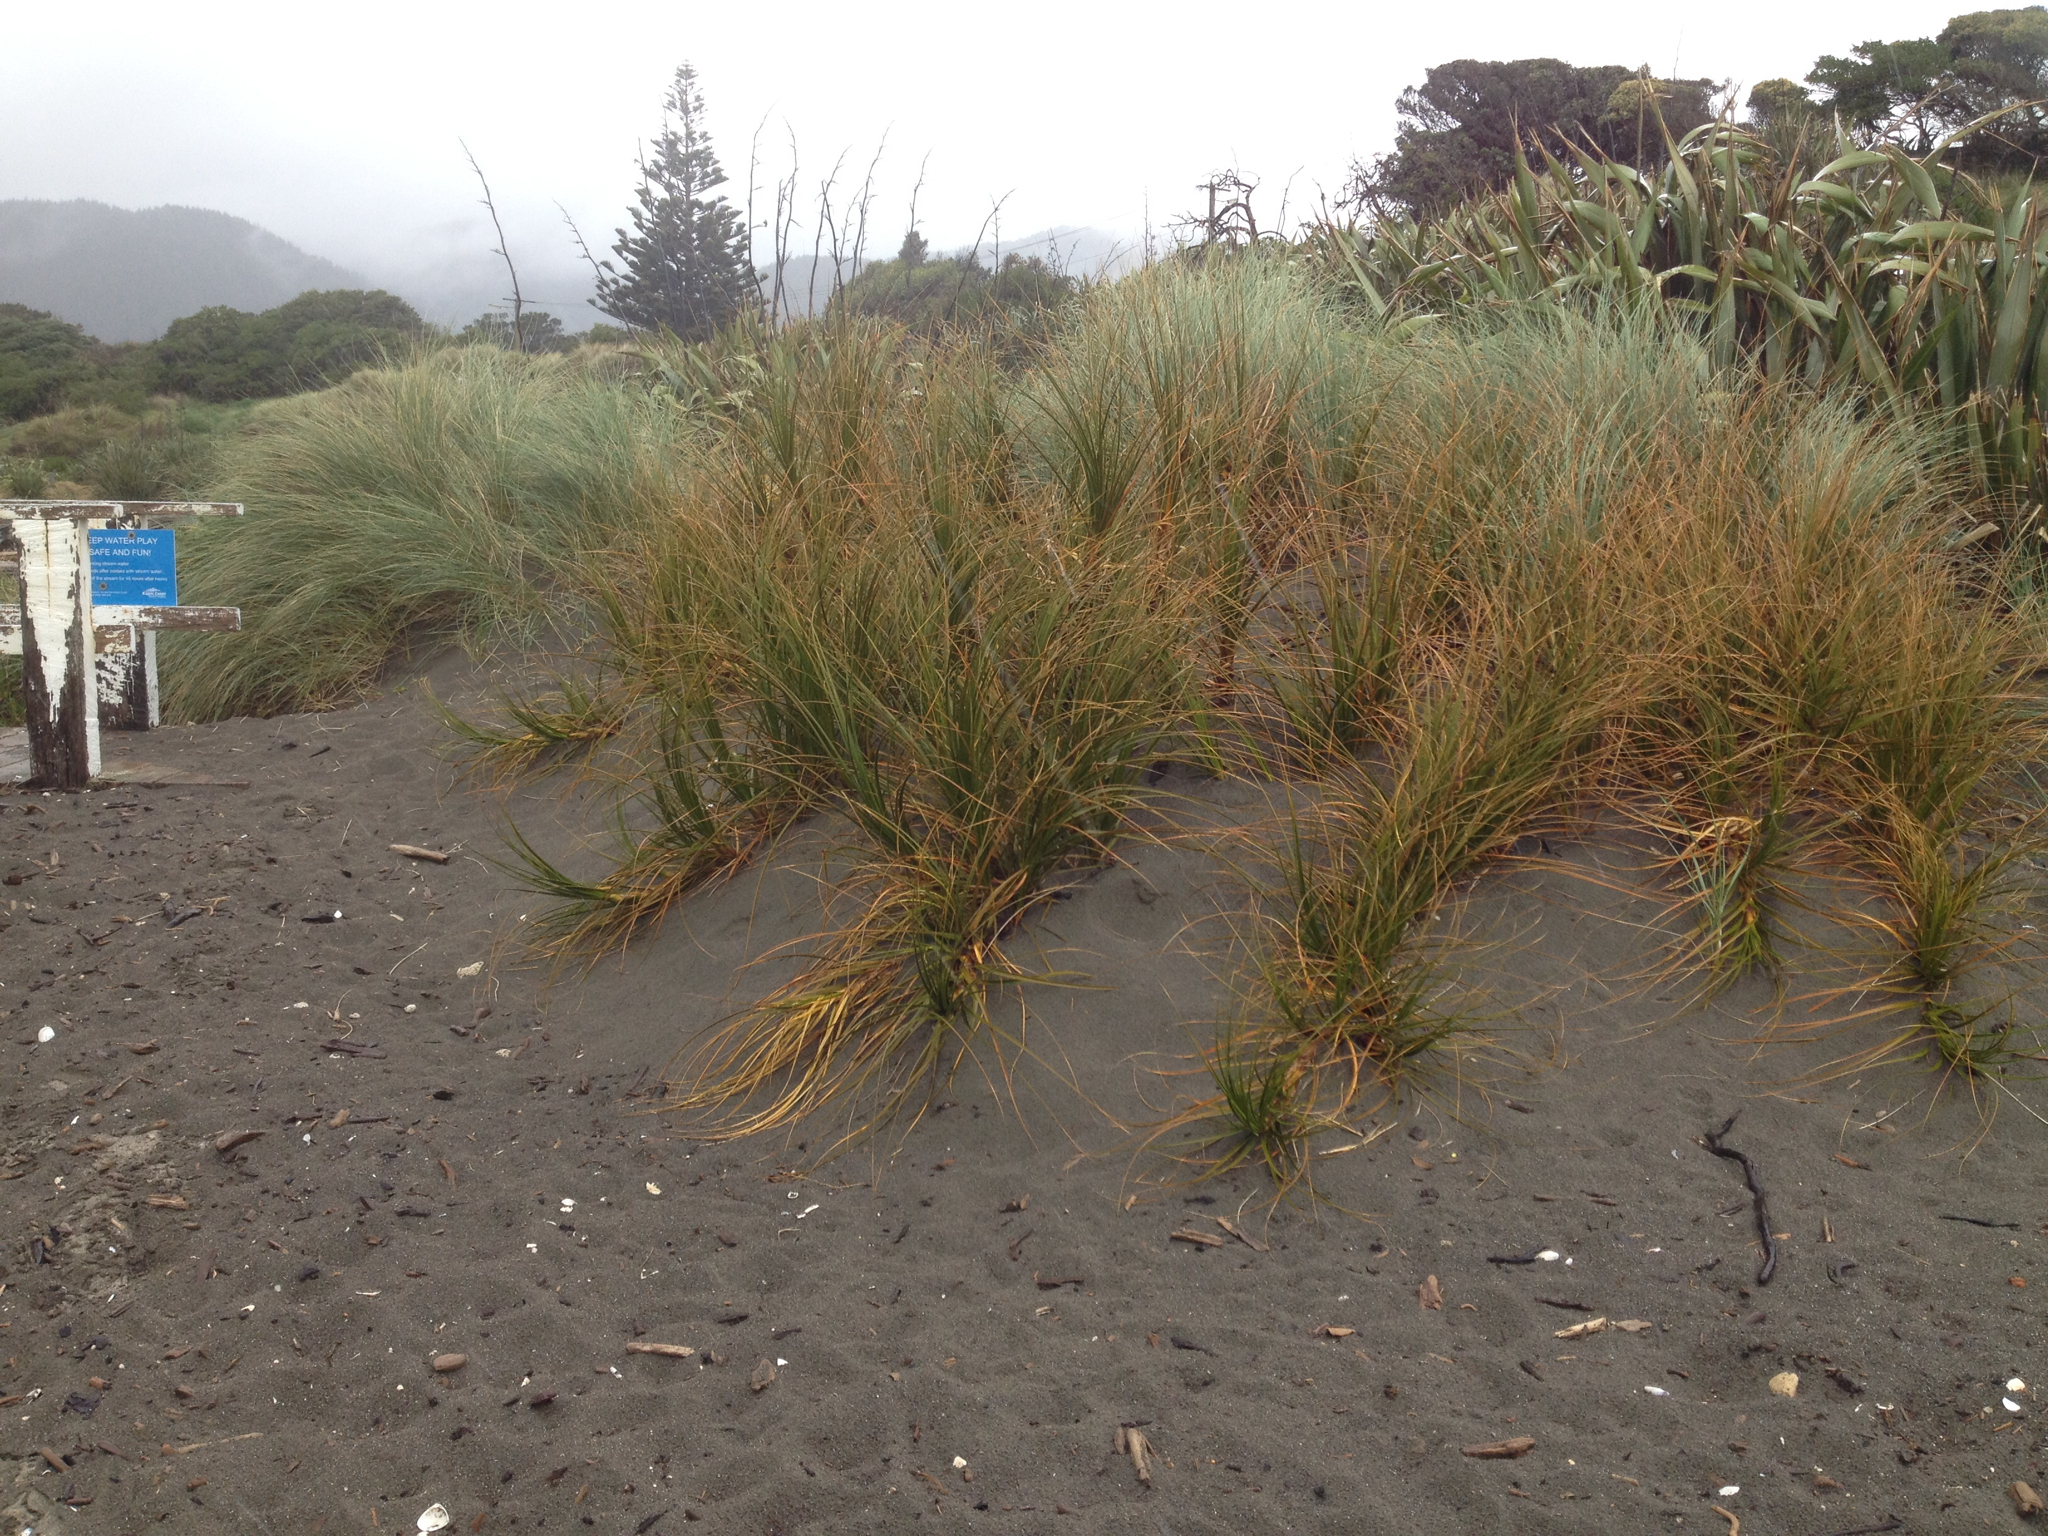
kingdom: Plantae
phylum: Tracheophyta
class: Liliopsida
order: Poales
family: Cyperaceae
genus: Ficinia
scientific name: Ficinia spiralis
